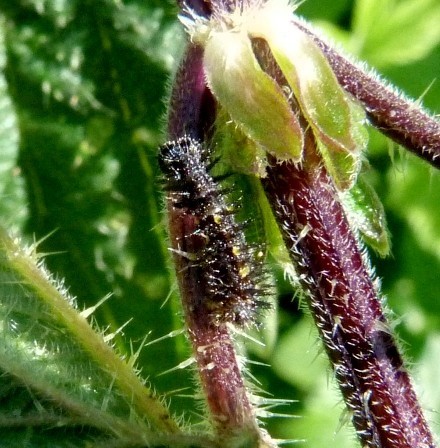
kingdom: Animalia
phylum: Arthropoda
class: Insecta
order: Lepidoptera
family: Nymphalidae
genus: Vanessa
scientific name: Vanessa atalanta
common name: Red admiral
